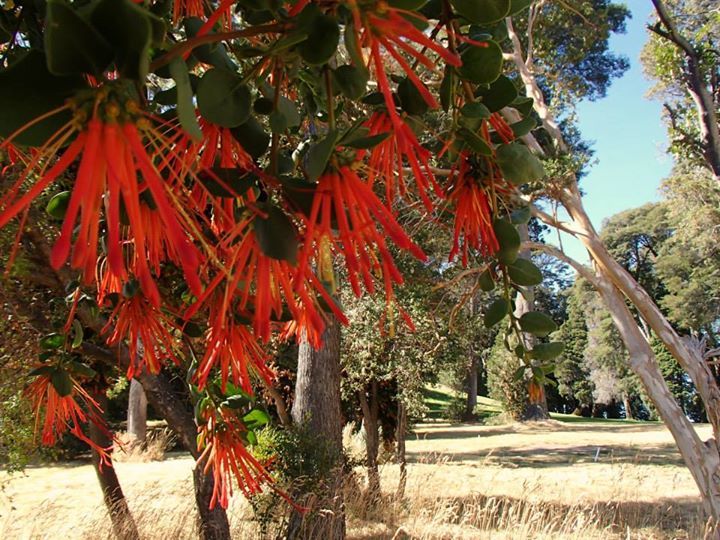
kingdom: Plantae
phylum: Tracheophyta
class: Magnoliopsida
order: Santalales
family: Loranthaceae
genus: Tristerix
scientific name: Tristerix corymbosus
